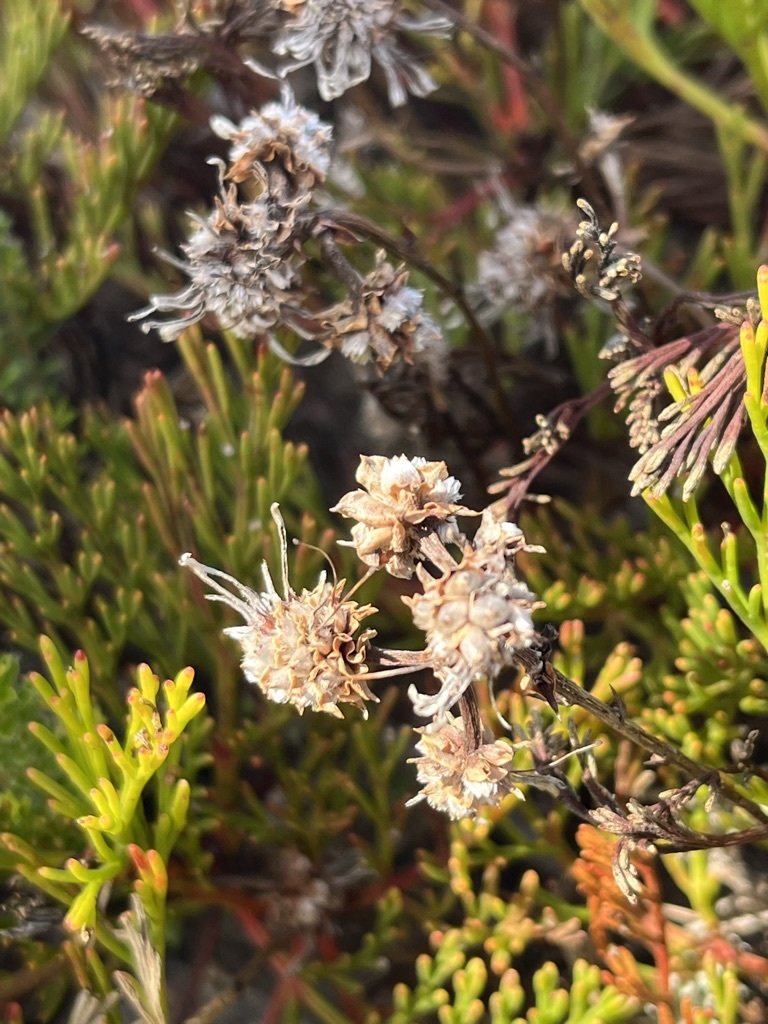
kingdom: Plantae
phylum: Tracheophyta
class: Magnoliopsida
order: Proteales
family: Proteaceae
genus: Serruria
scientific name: Serruria elongata
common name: Long-stalk spiderhead
